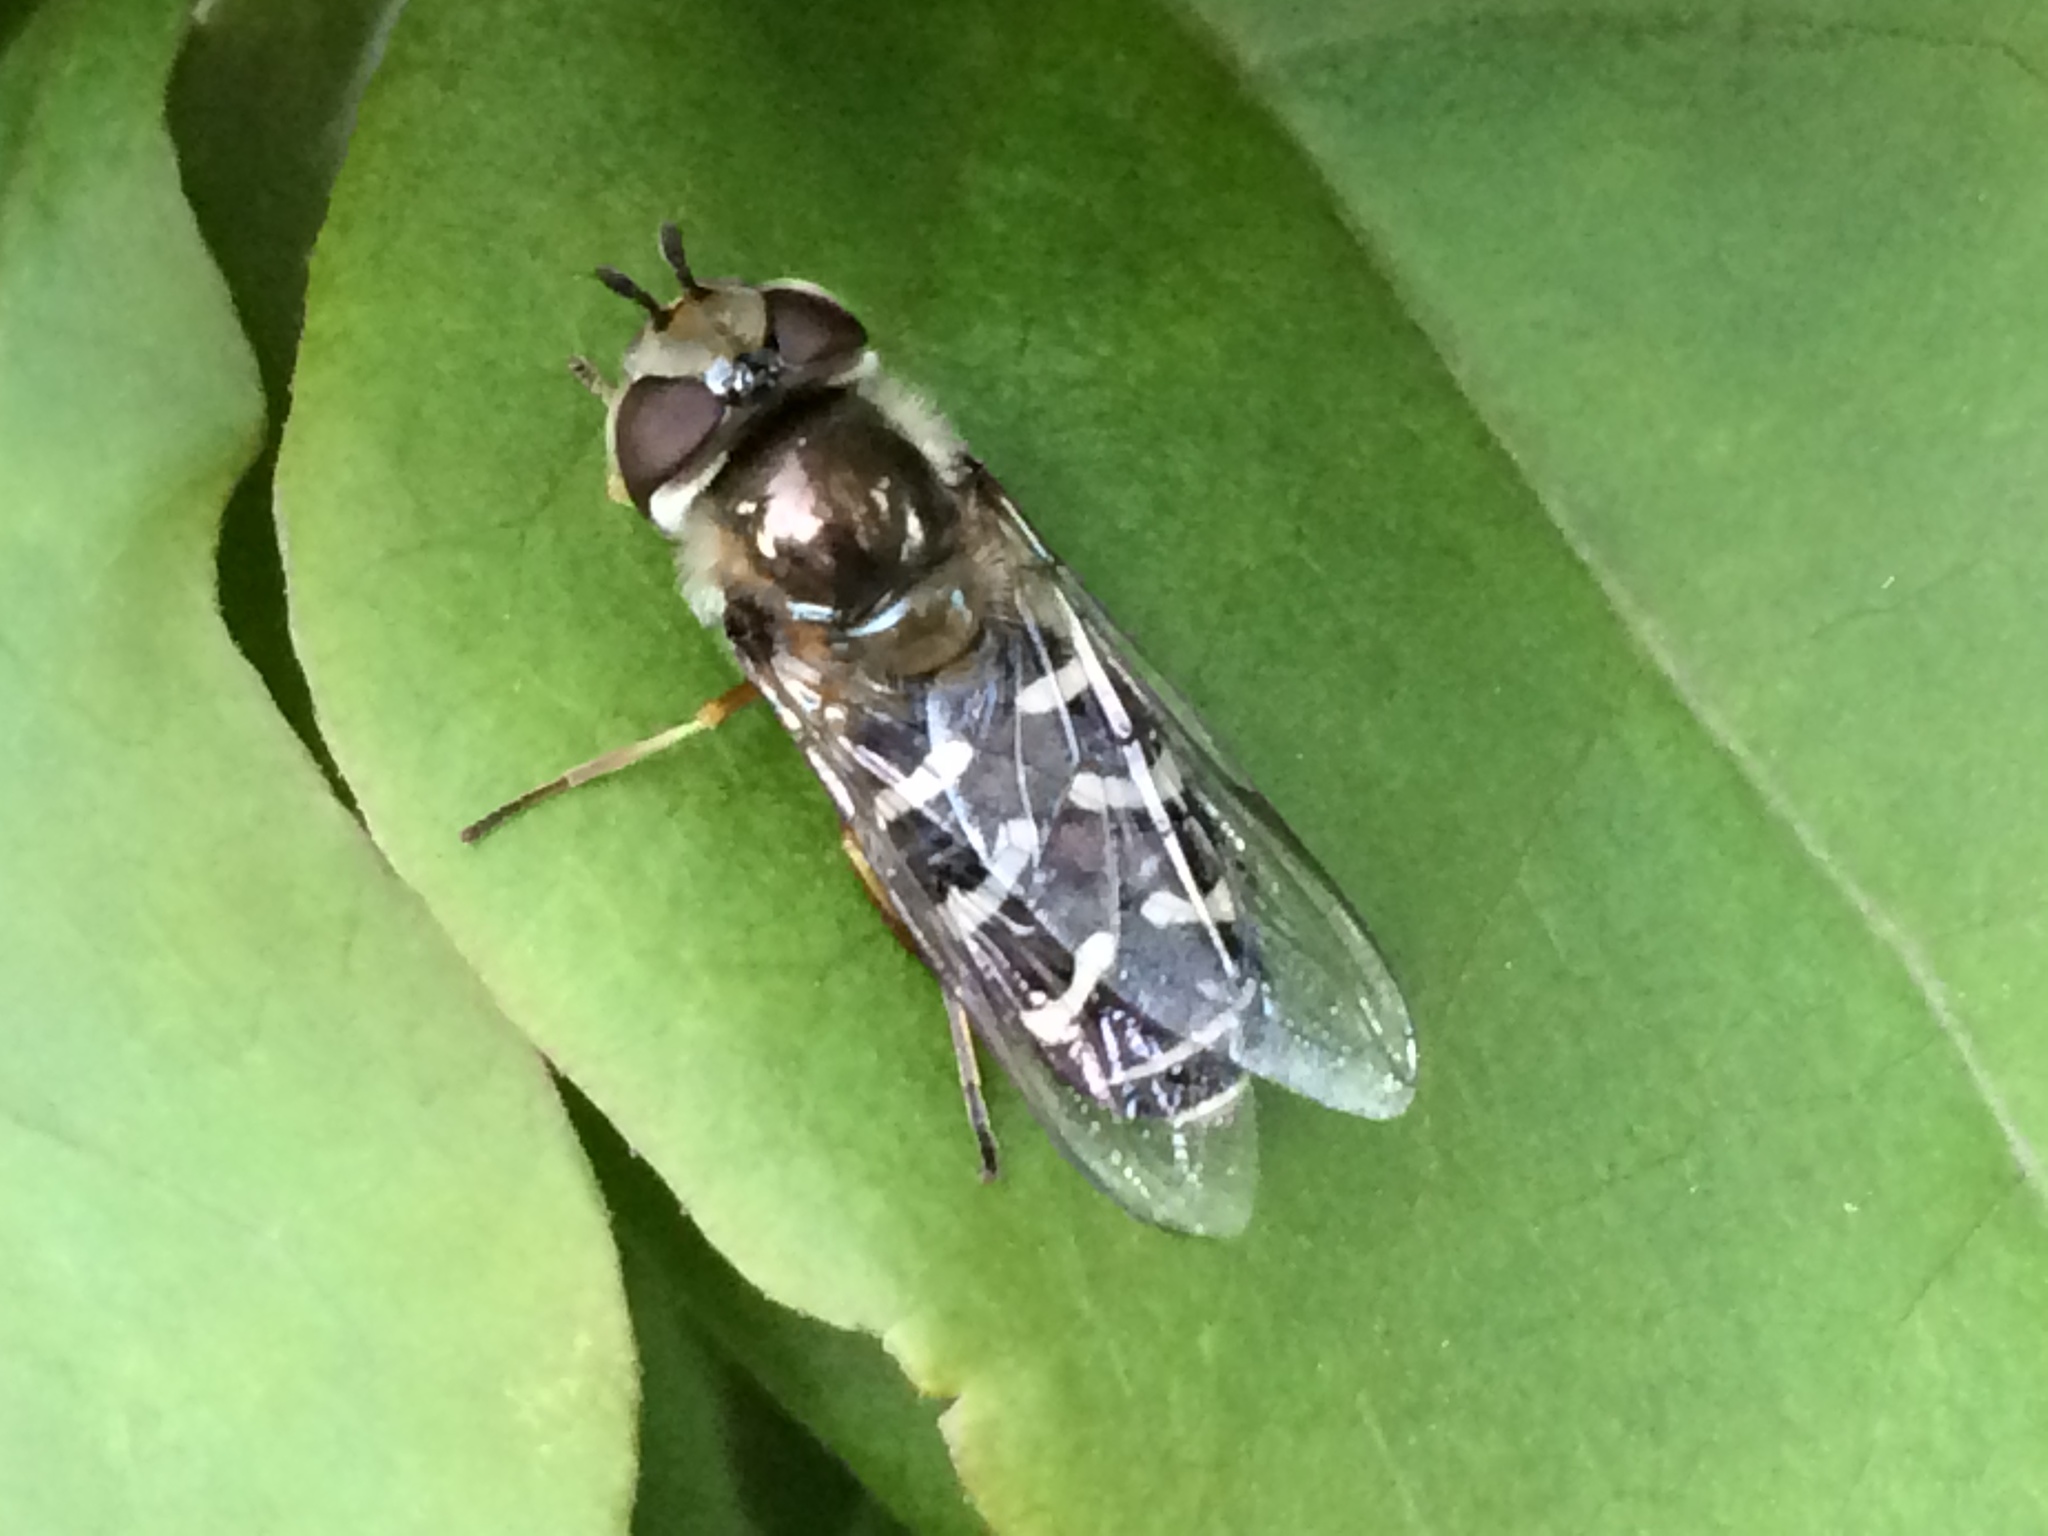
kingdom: Animalia
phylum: Arthropoda
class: Insecta
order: Diptera
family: Syrphidae
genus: Scaeva
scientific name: Scaeva affinis
